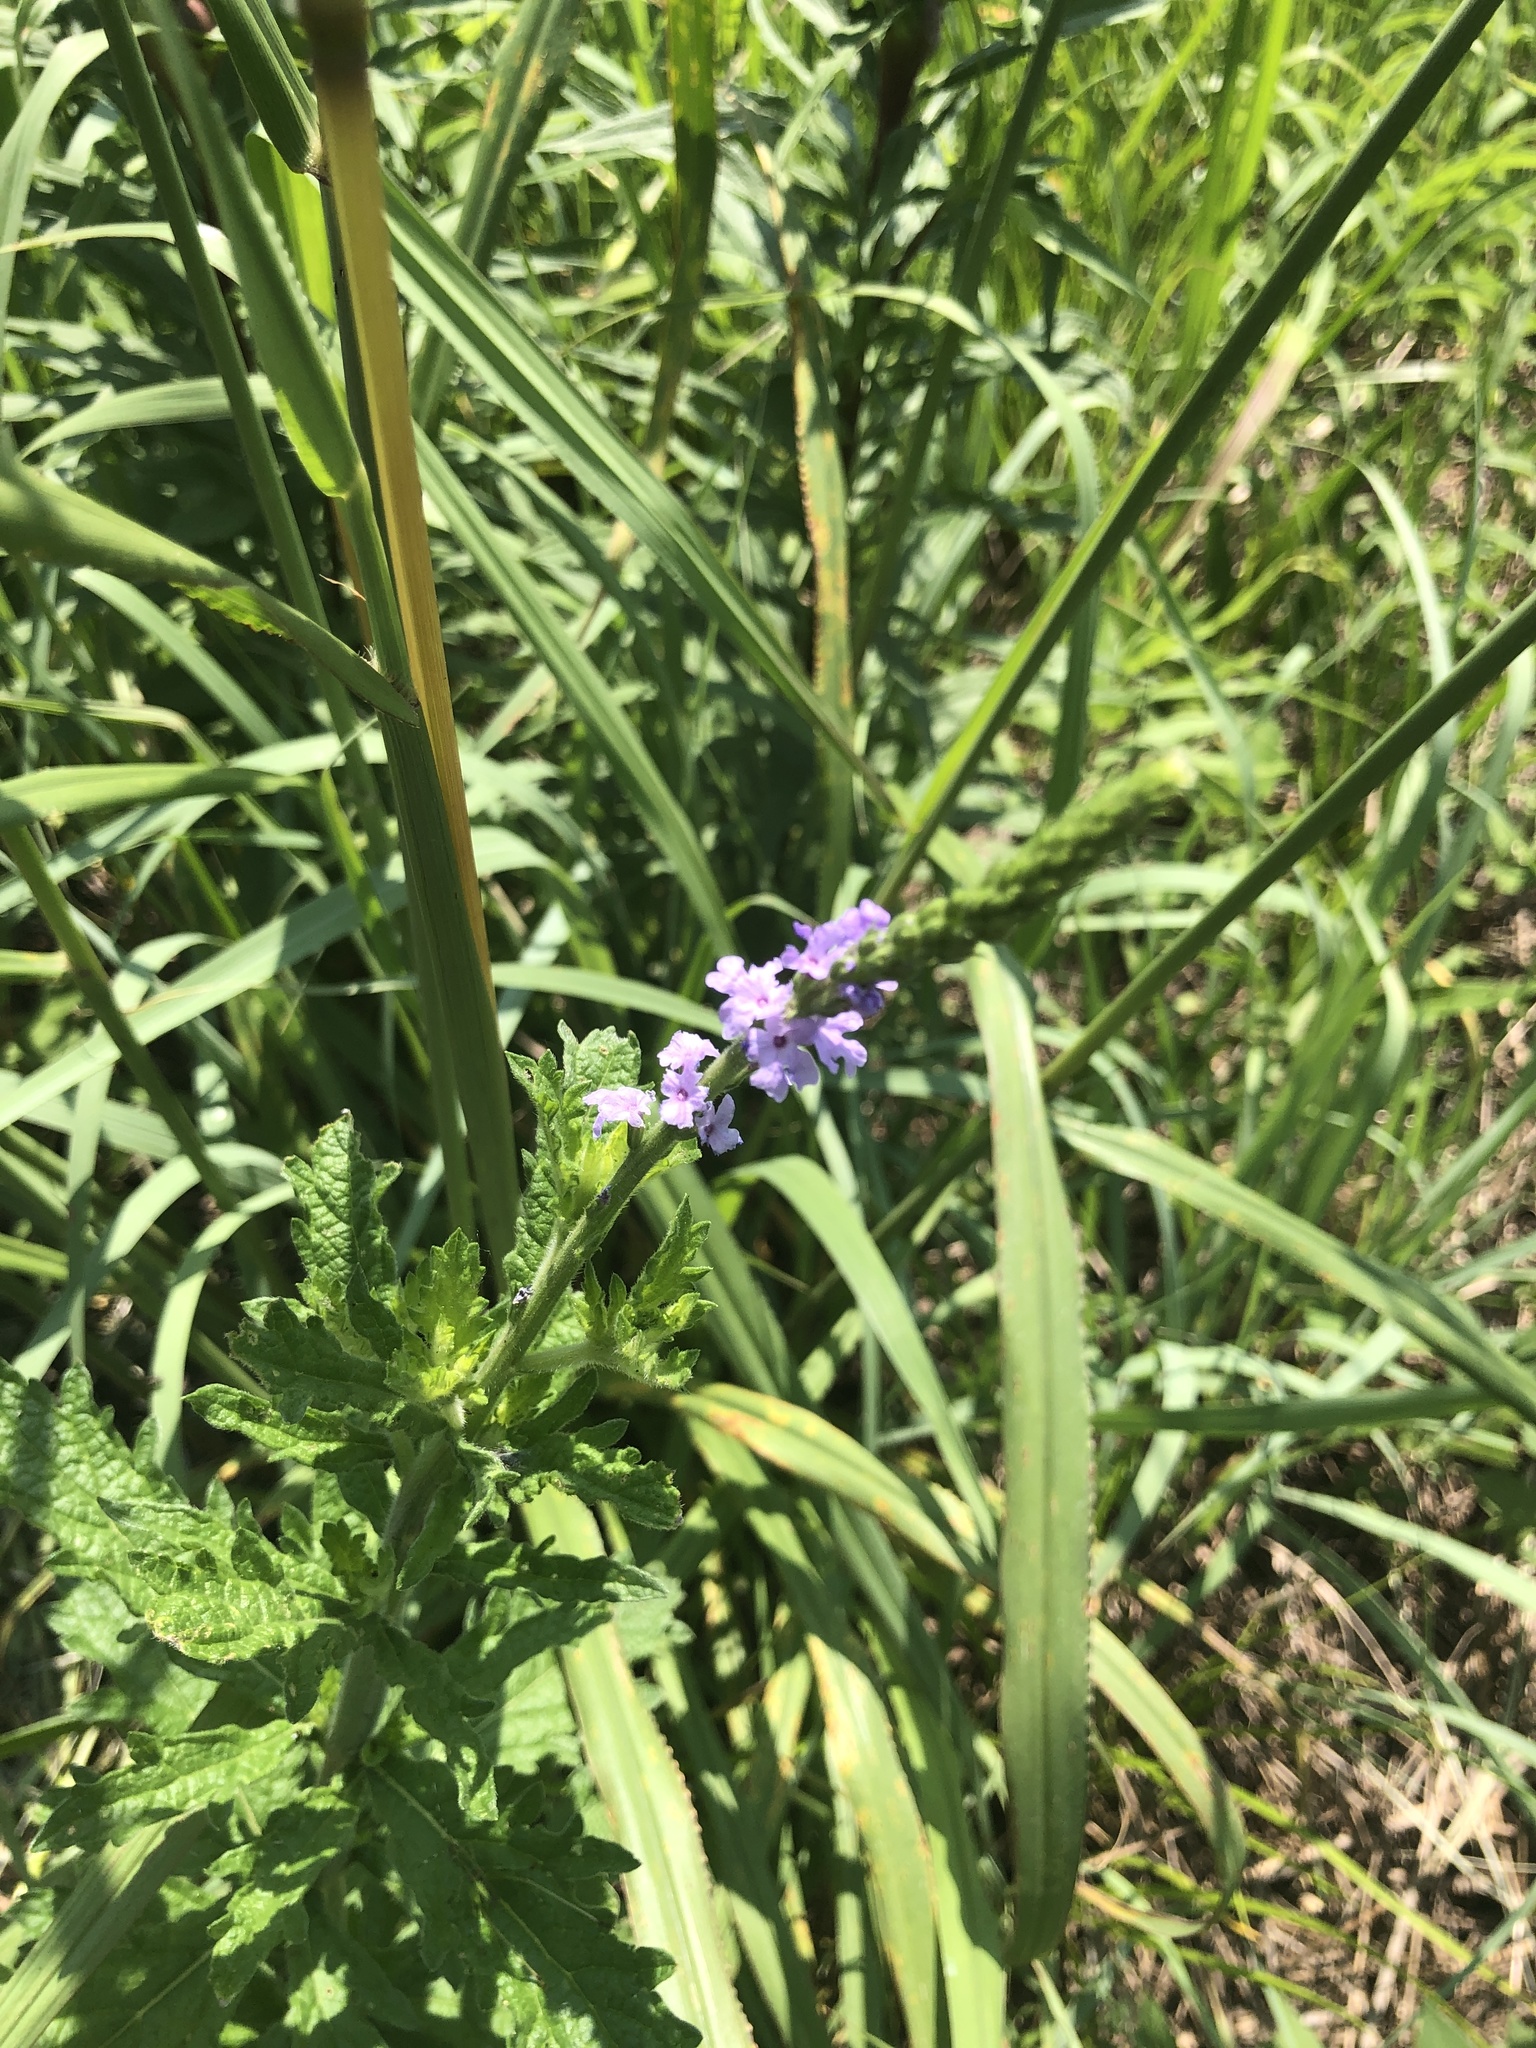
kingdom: Plantae
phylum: Tracheophyta
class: Magnoliopsida
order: Lamiales
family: Verbenaceae
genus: Verbena
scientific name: Verbena xutha
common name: Gulf vervain
